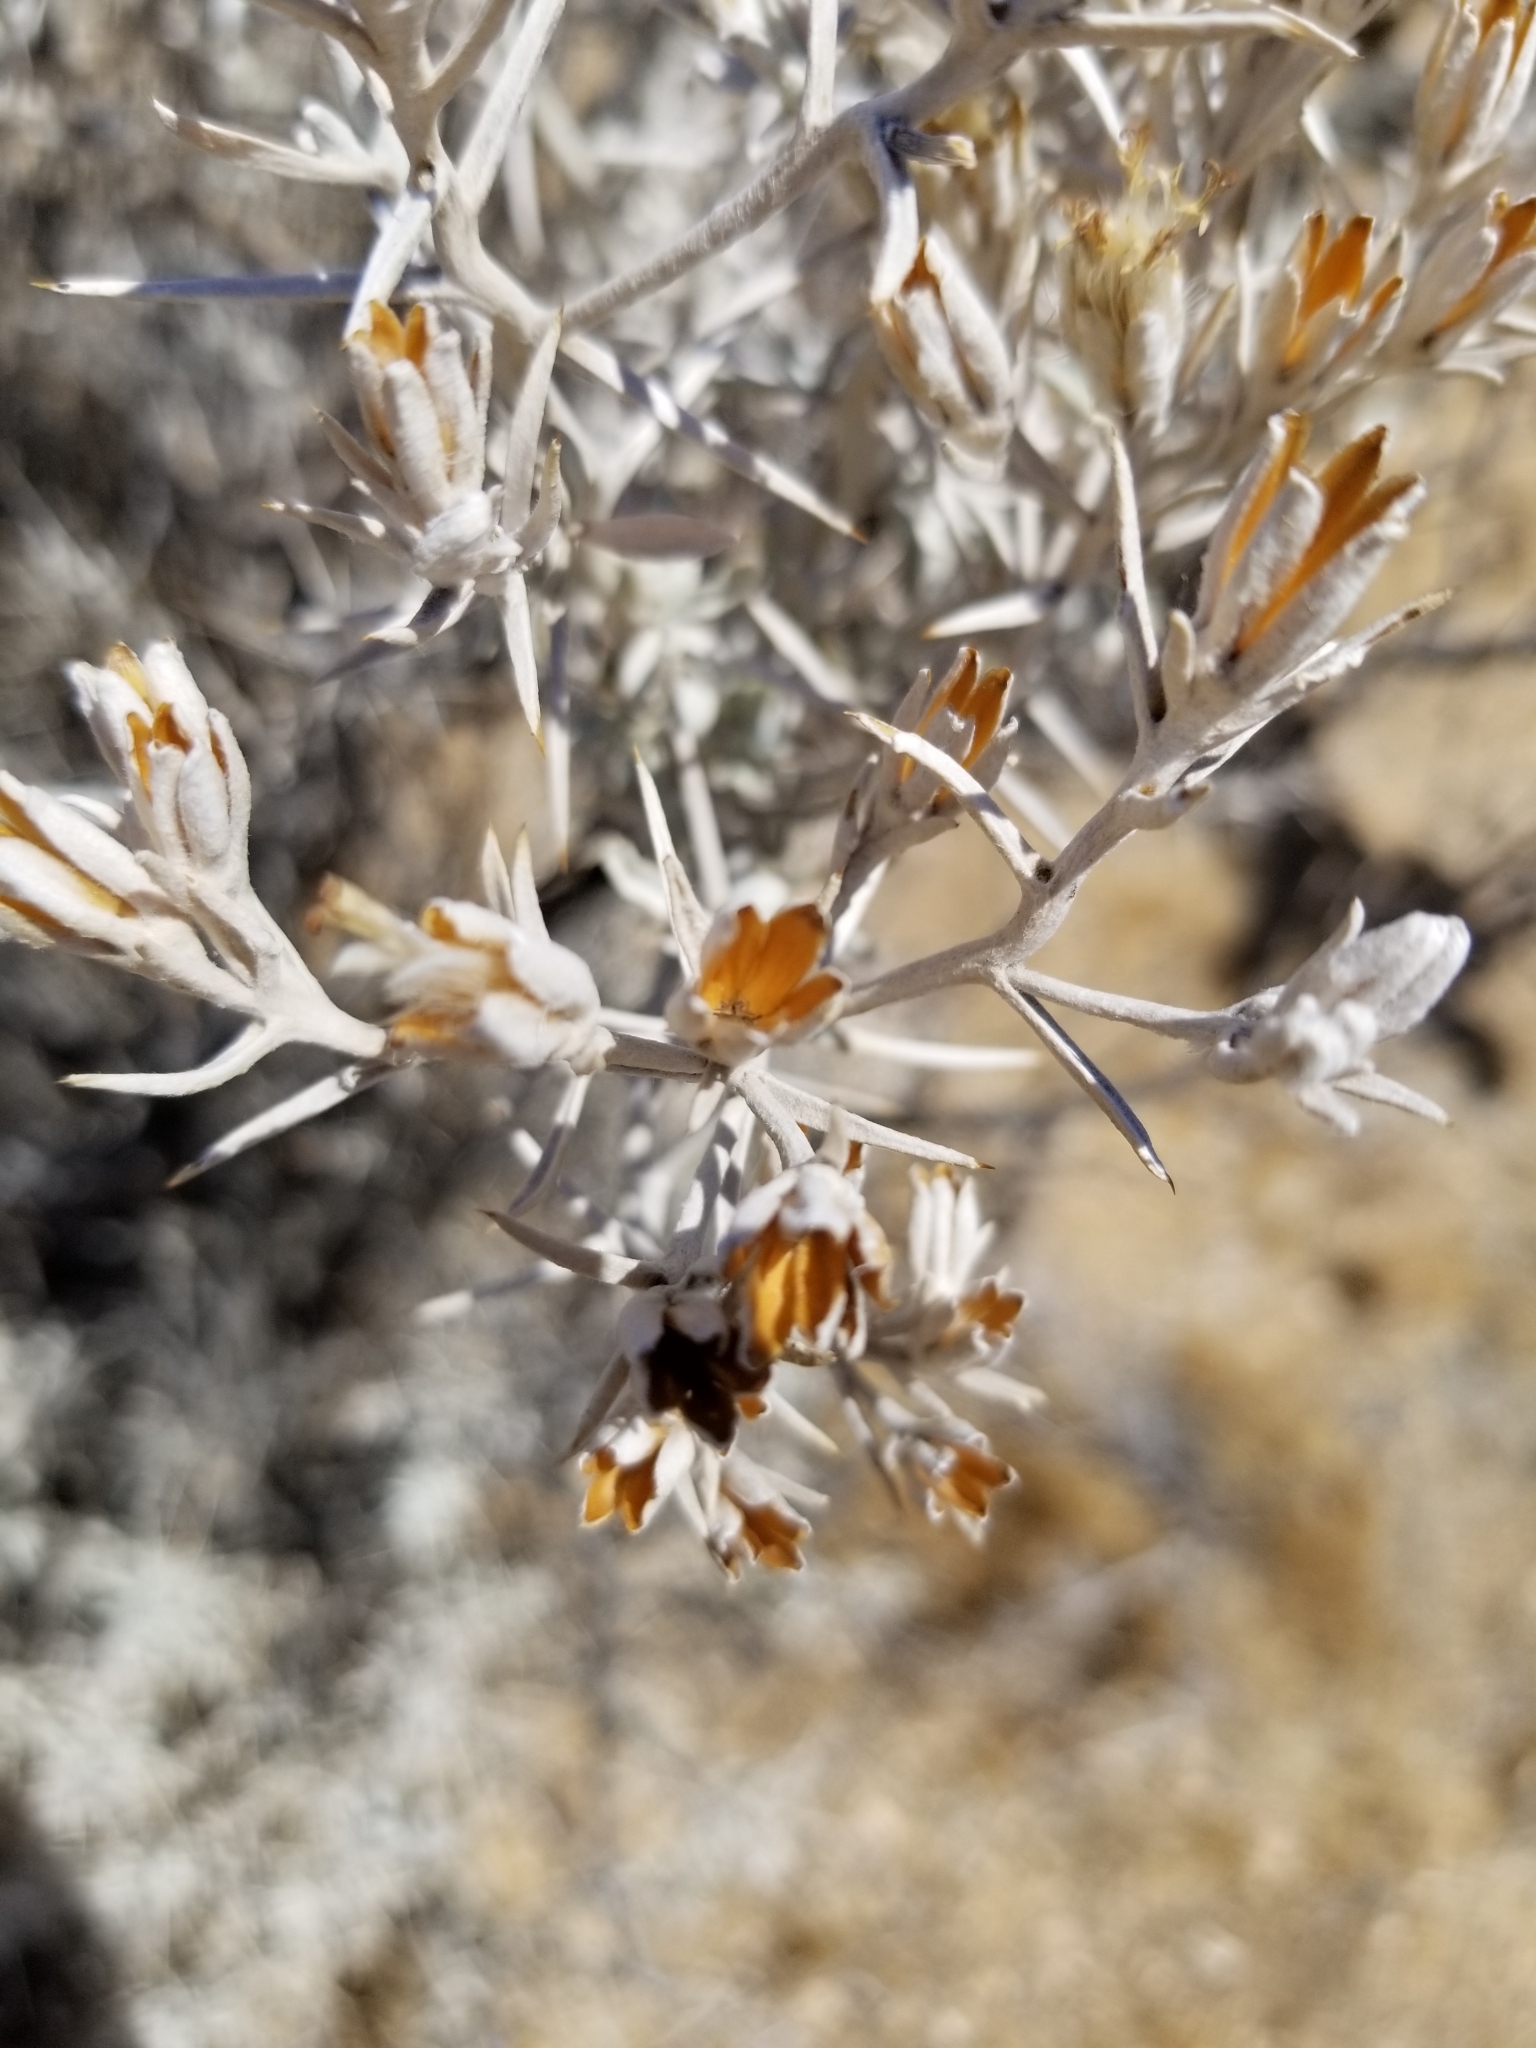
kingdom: Plantae
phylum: Tracheophyta
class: Magnoliopsida
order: Asterales
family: Asteraceae
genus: Tetradymia
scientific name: Tetradymia stenolepis
